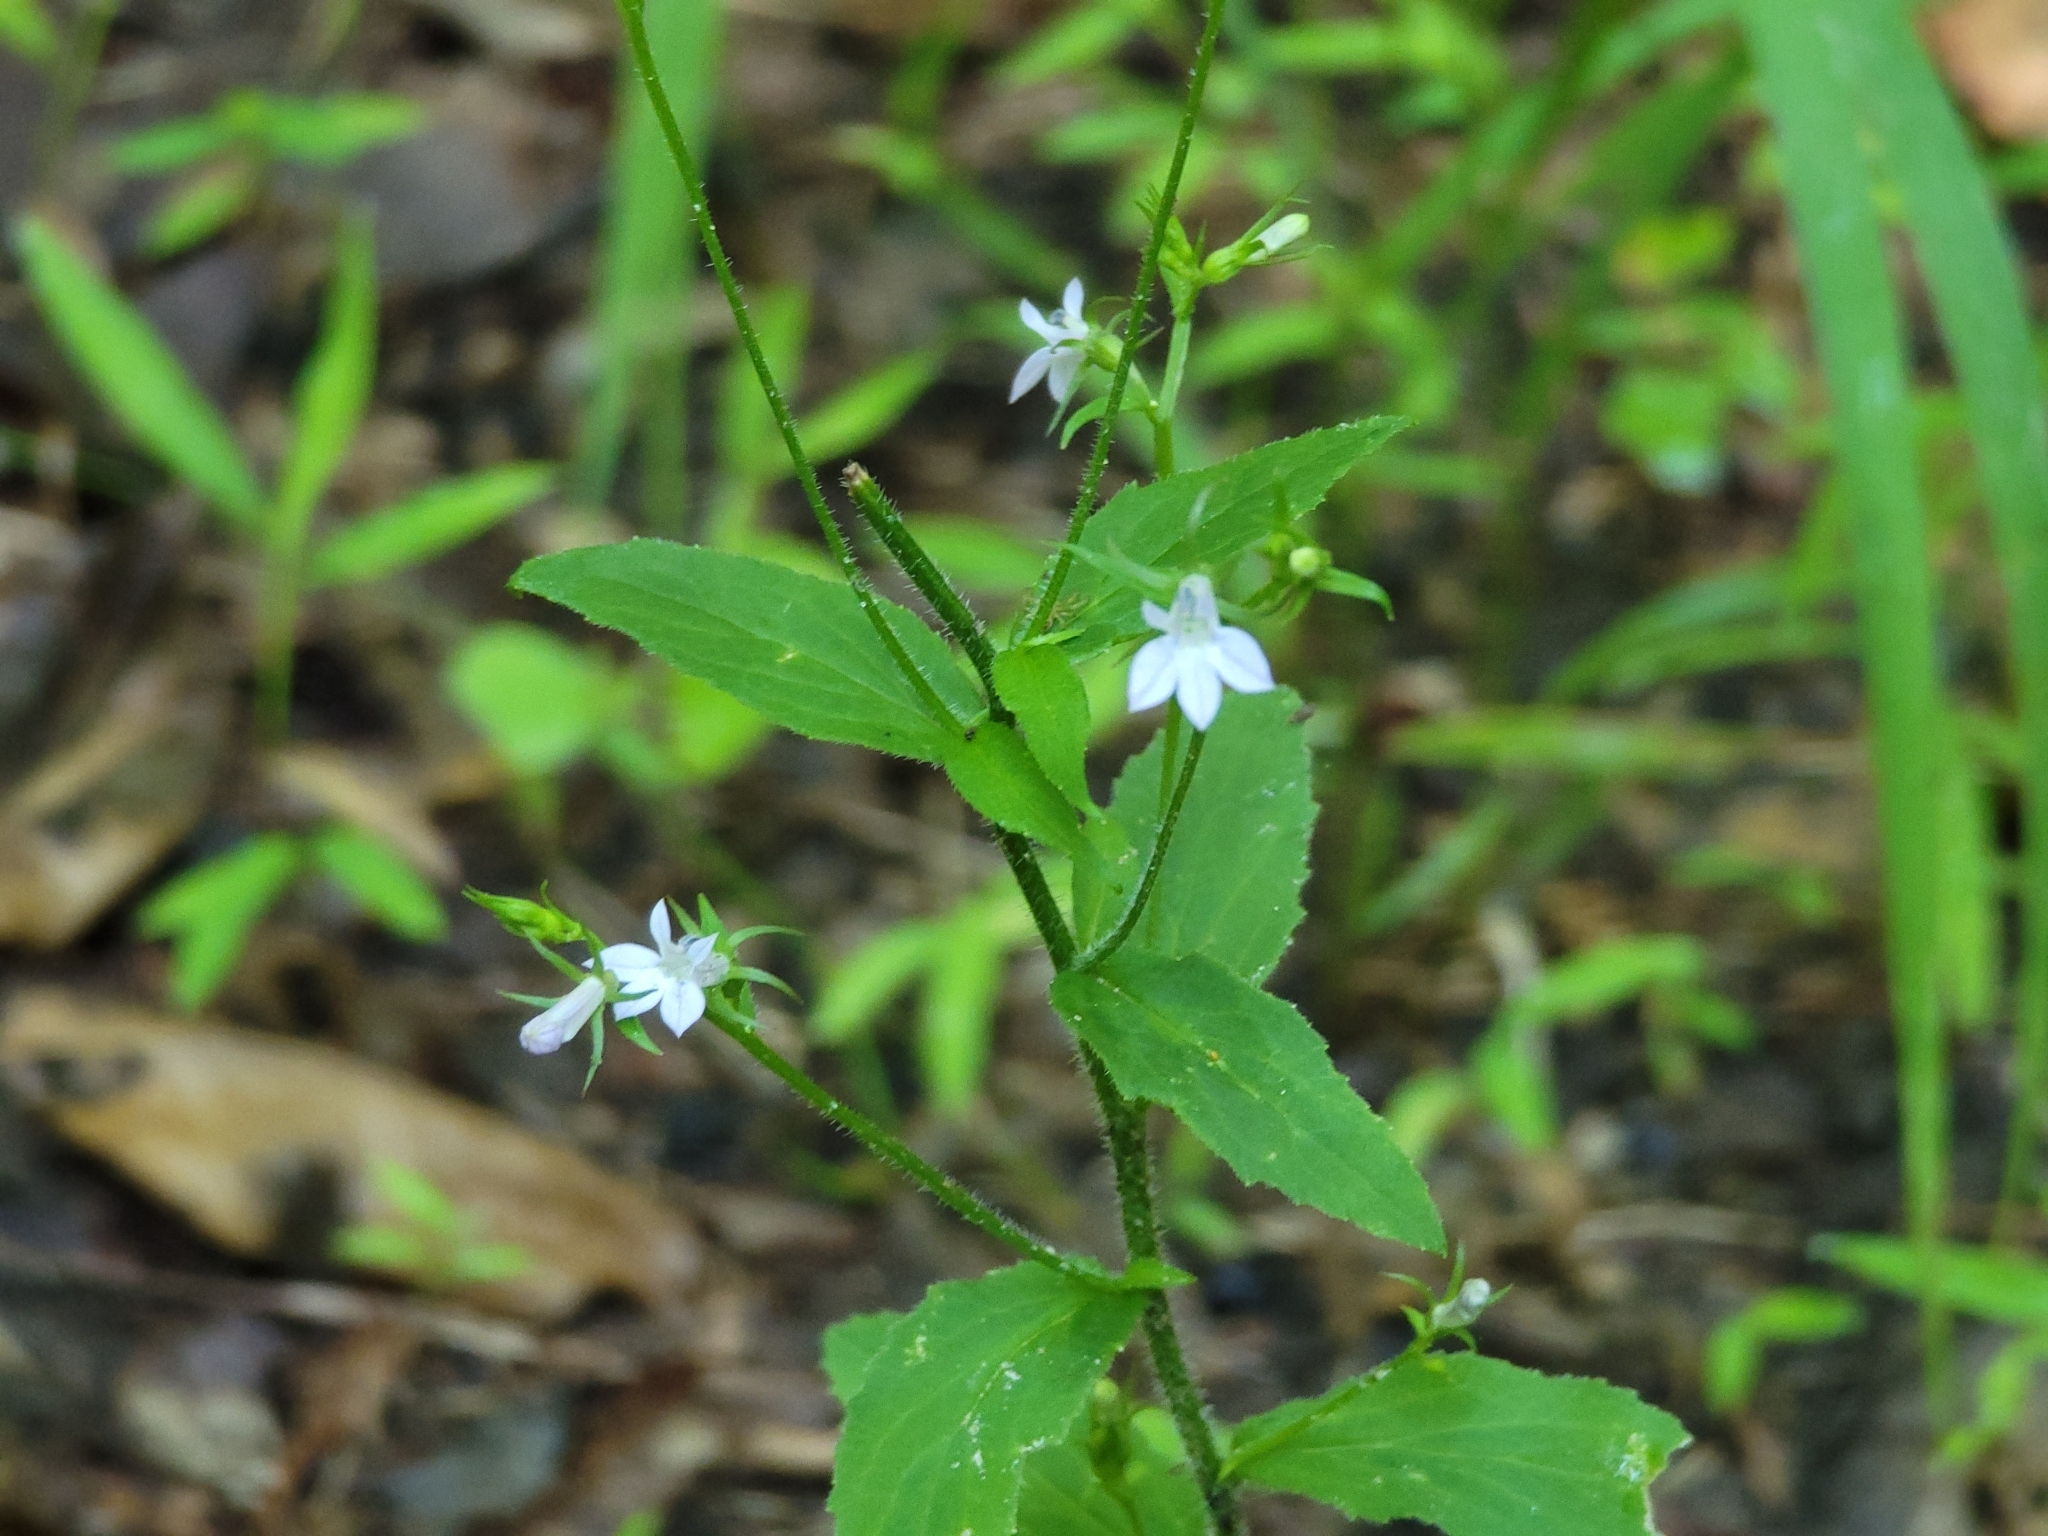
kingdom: Plantae
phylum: Tracheophyta
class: Magnoliopsida
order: Asterales
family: Campanulaceae
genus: Lobelia
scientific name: Lobelia inflata
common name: Indian tobacco
